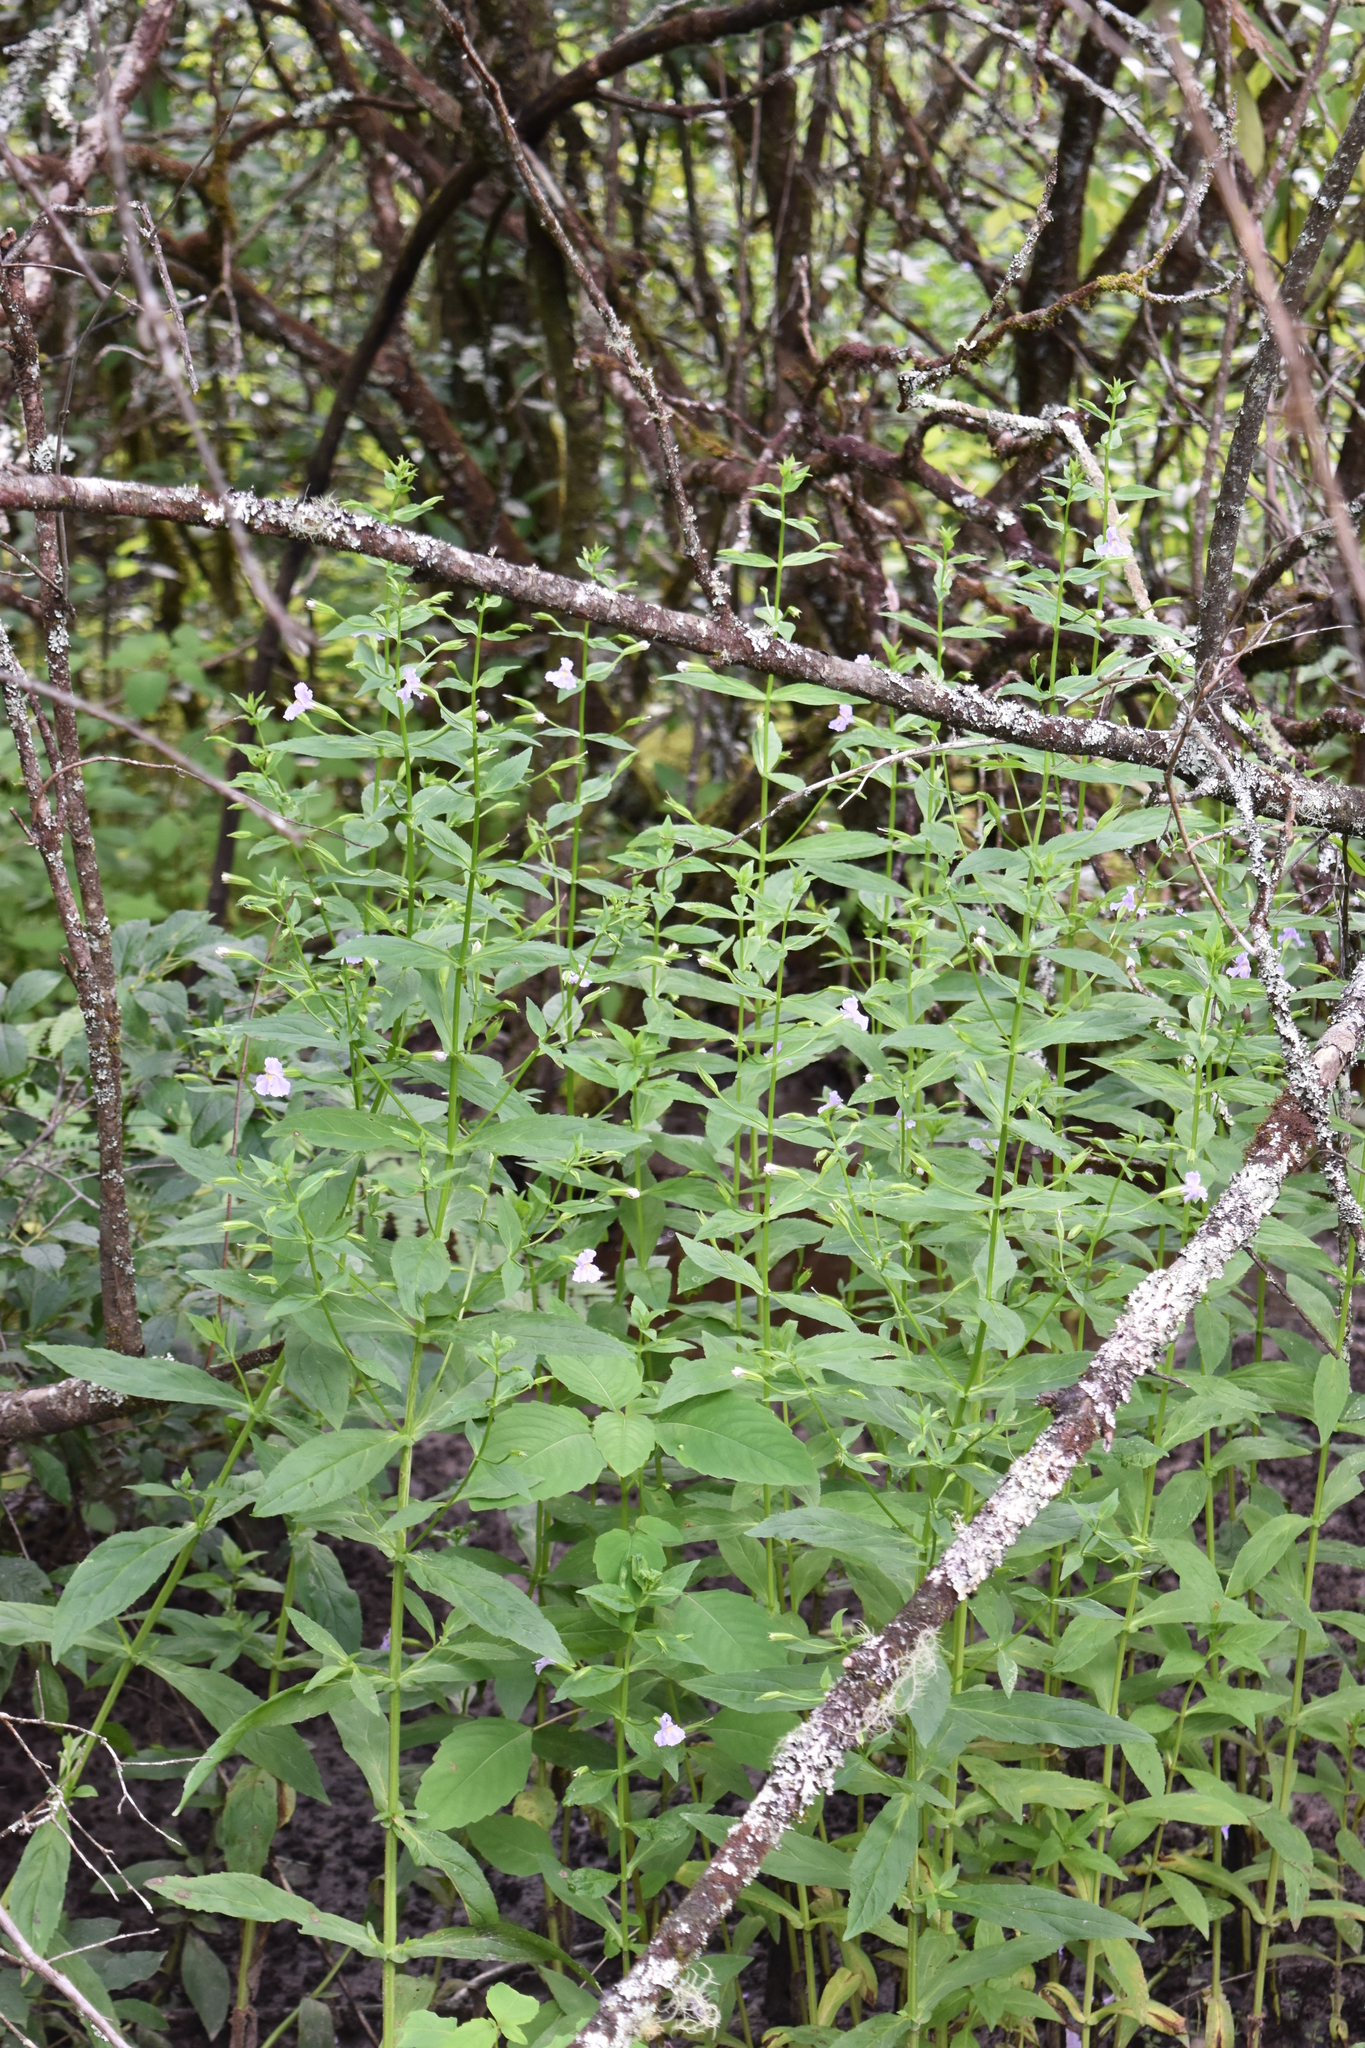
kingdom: Plantae
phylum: Tracheophyta
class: Magnoliopsida
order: Lamiales
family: Phrymaceae
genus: Mimulus
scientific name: Mimulus ringens
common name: Allegheny monkeyflower
